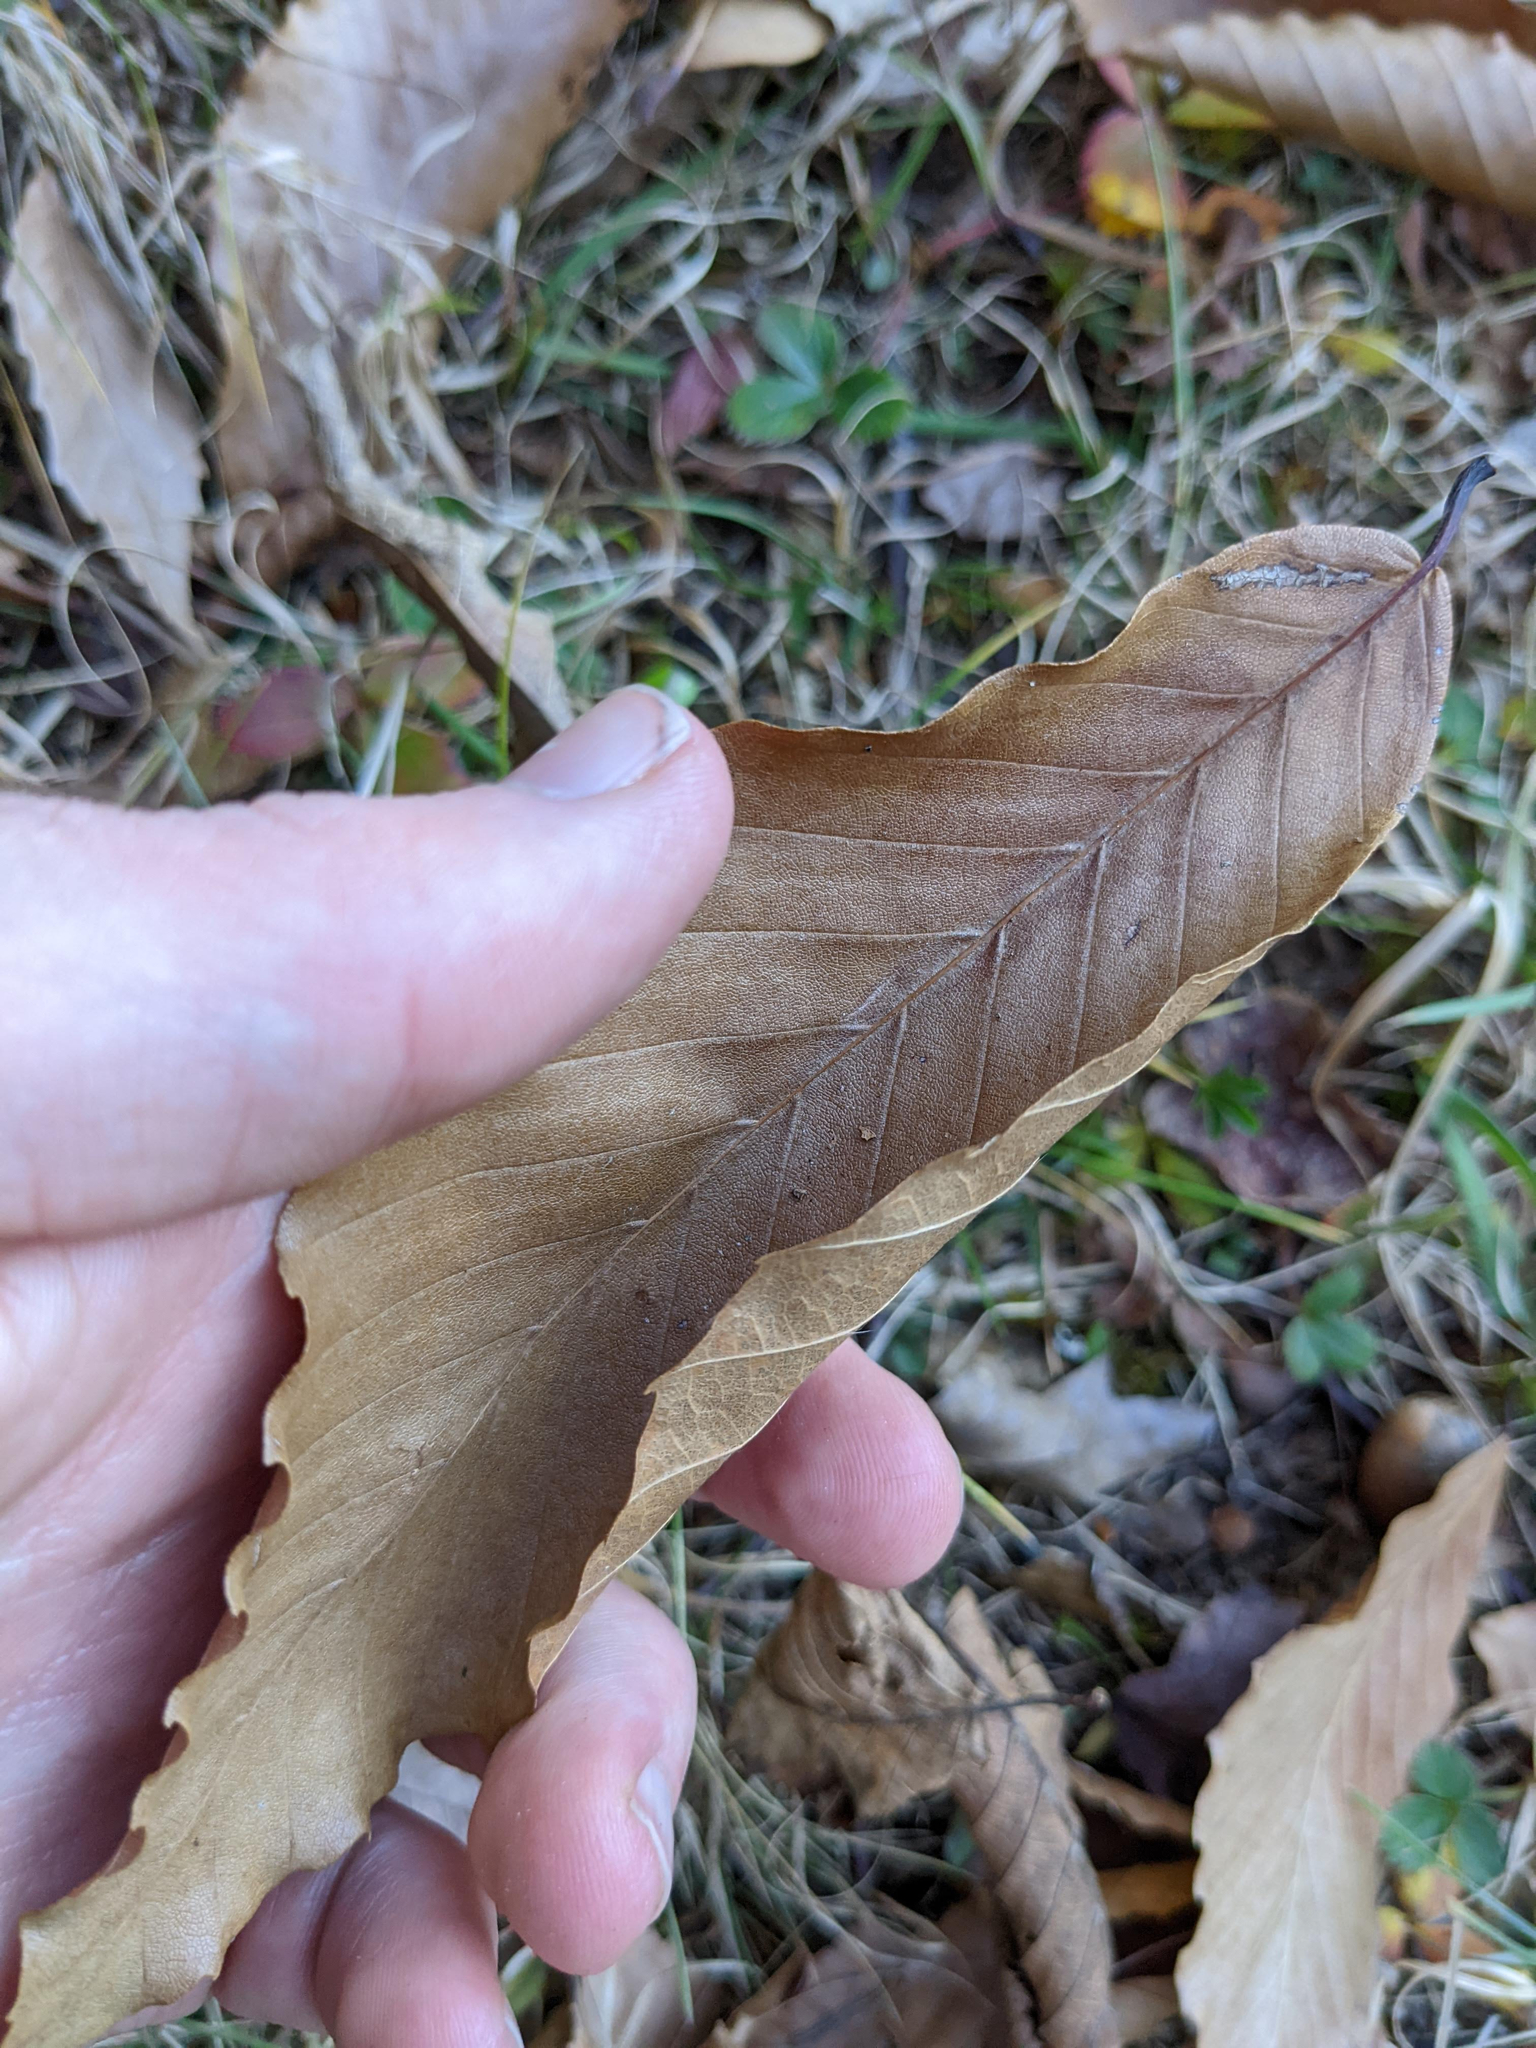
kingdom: Plantae
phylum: Tracheophyta
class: Magnoliopsida
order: Fagales
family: Fagaceae
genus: Fagus
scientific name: Fagus grandifolia
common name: American beech
